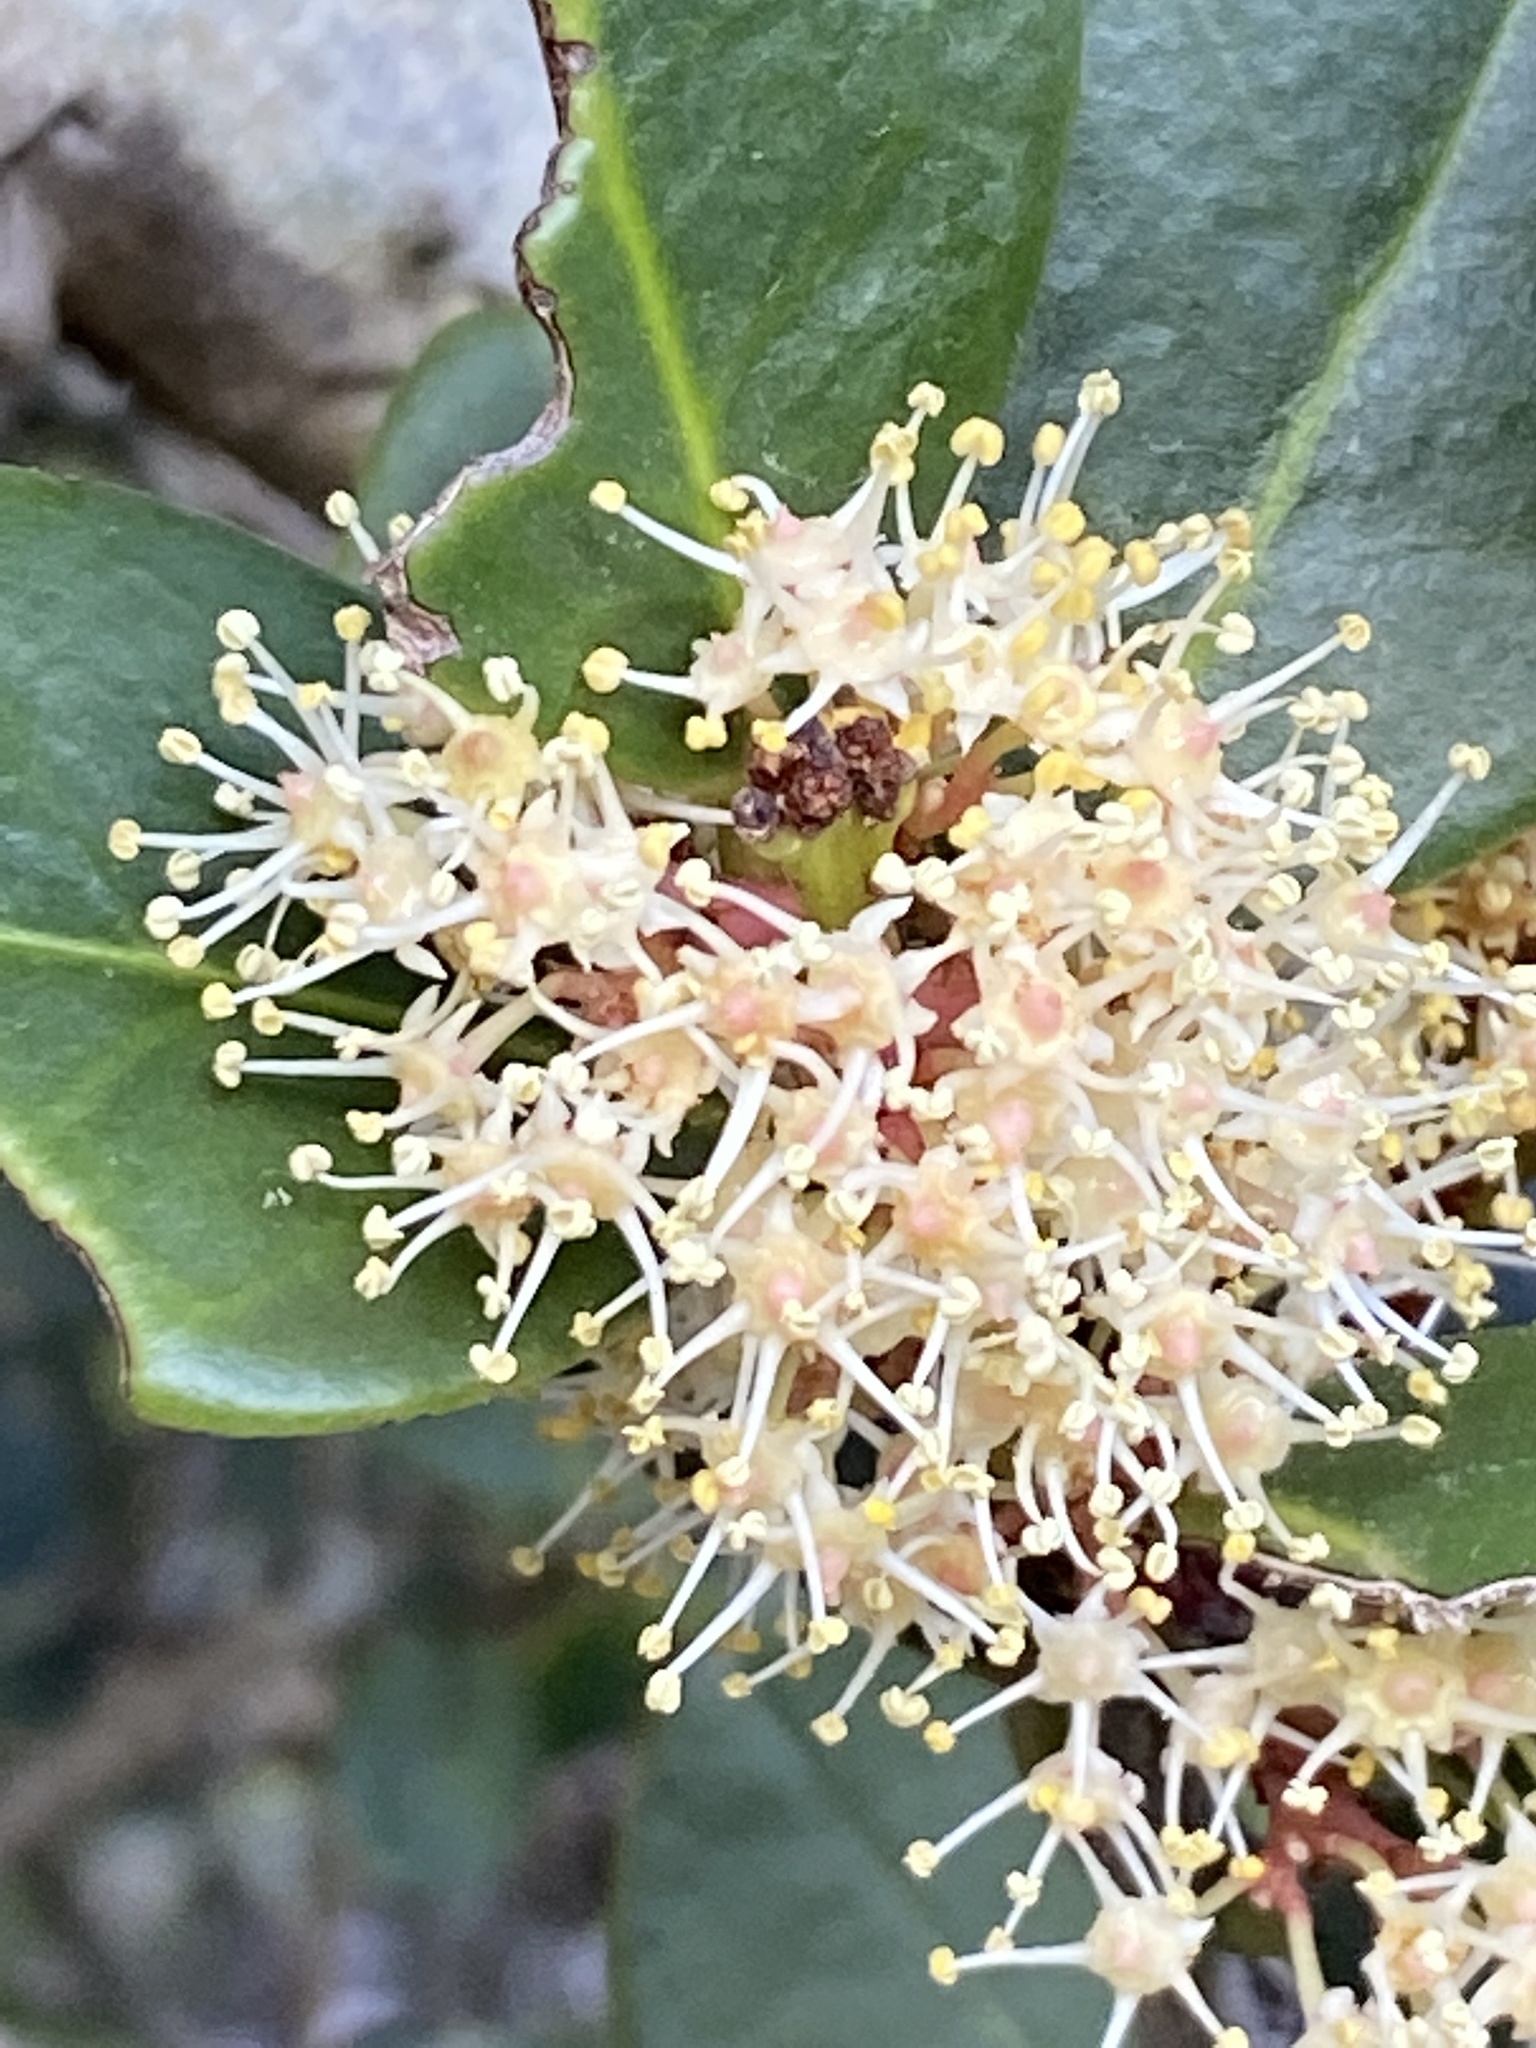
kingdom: Plantae
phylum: Tracheophyta
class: Magnoliopsida
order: Celastrales
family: Celastraceae
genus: Maurocenia
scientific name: Maurocenia frangula
